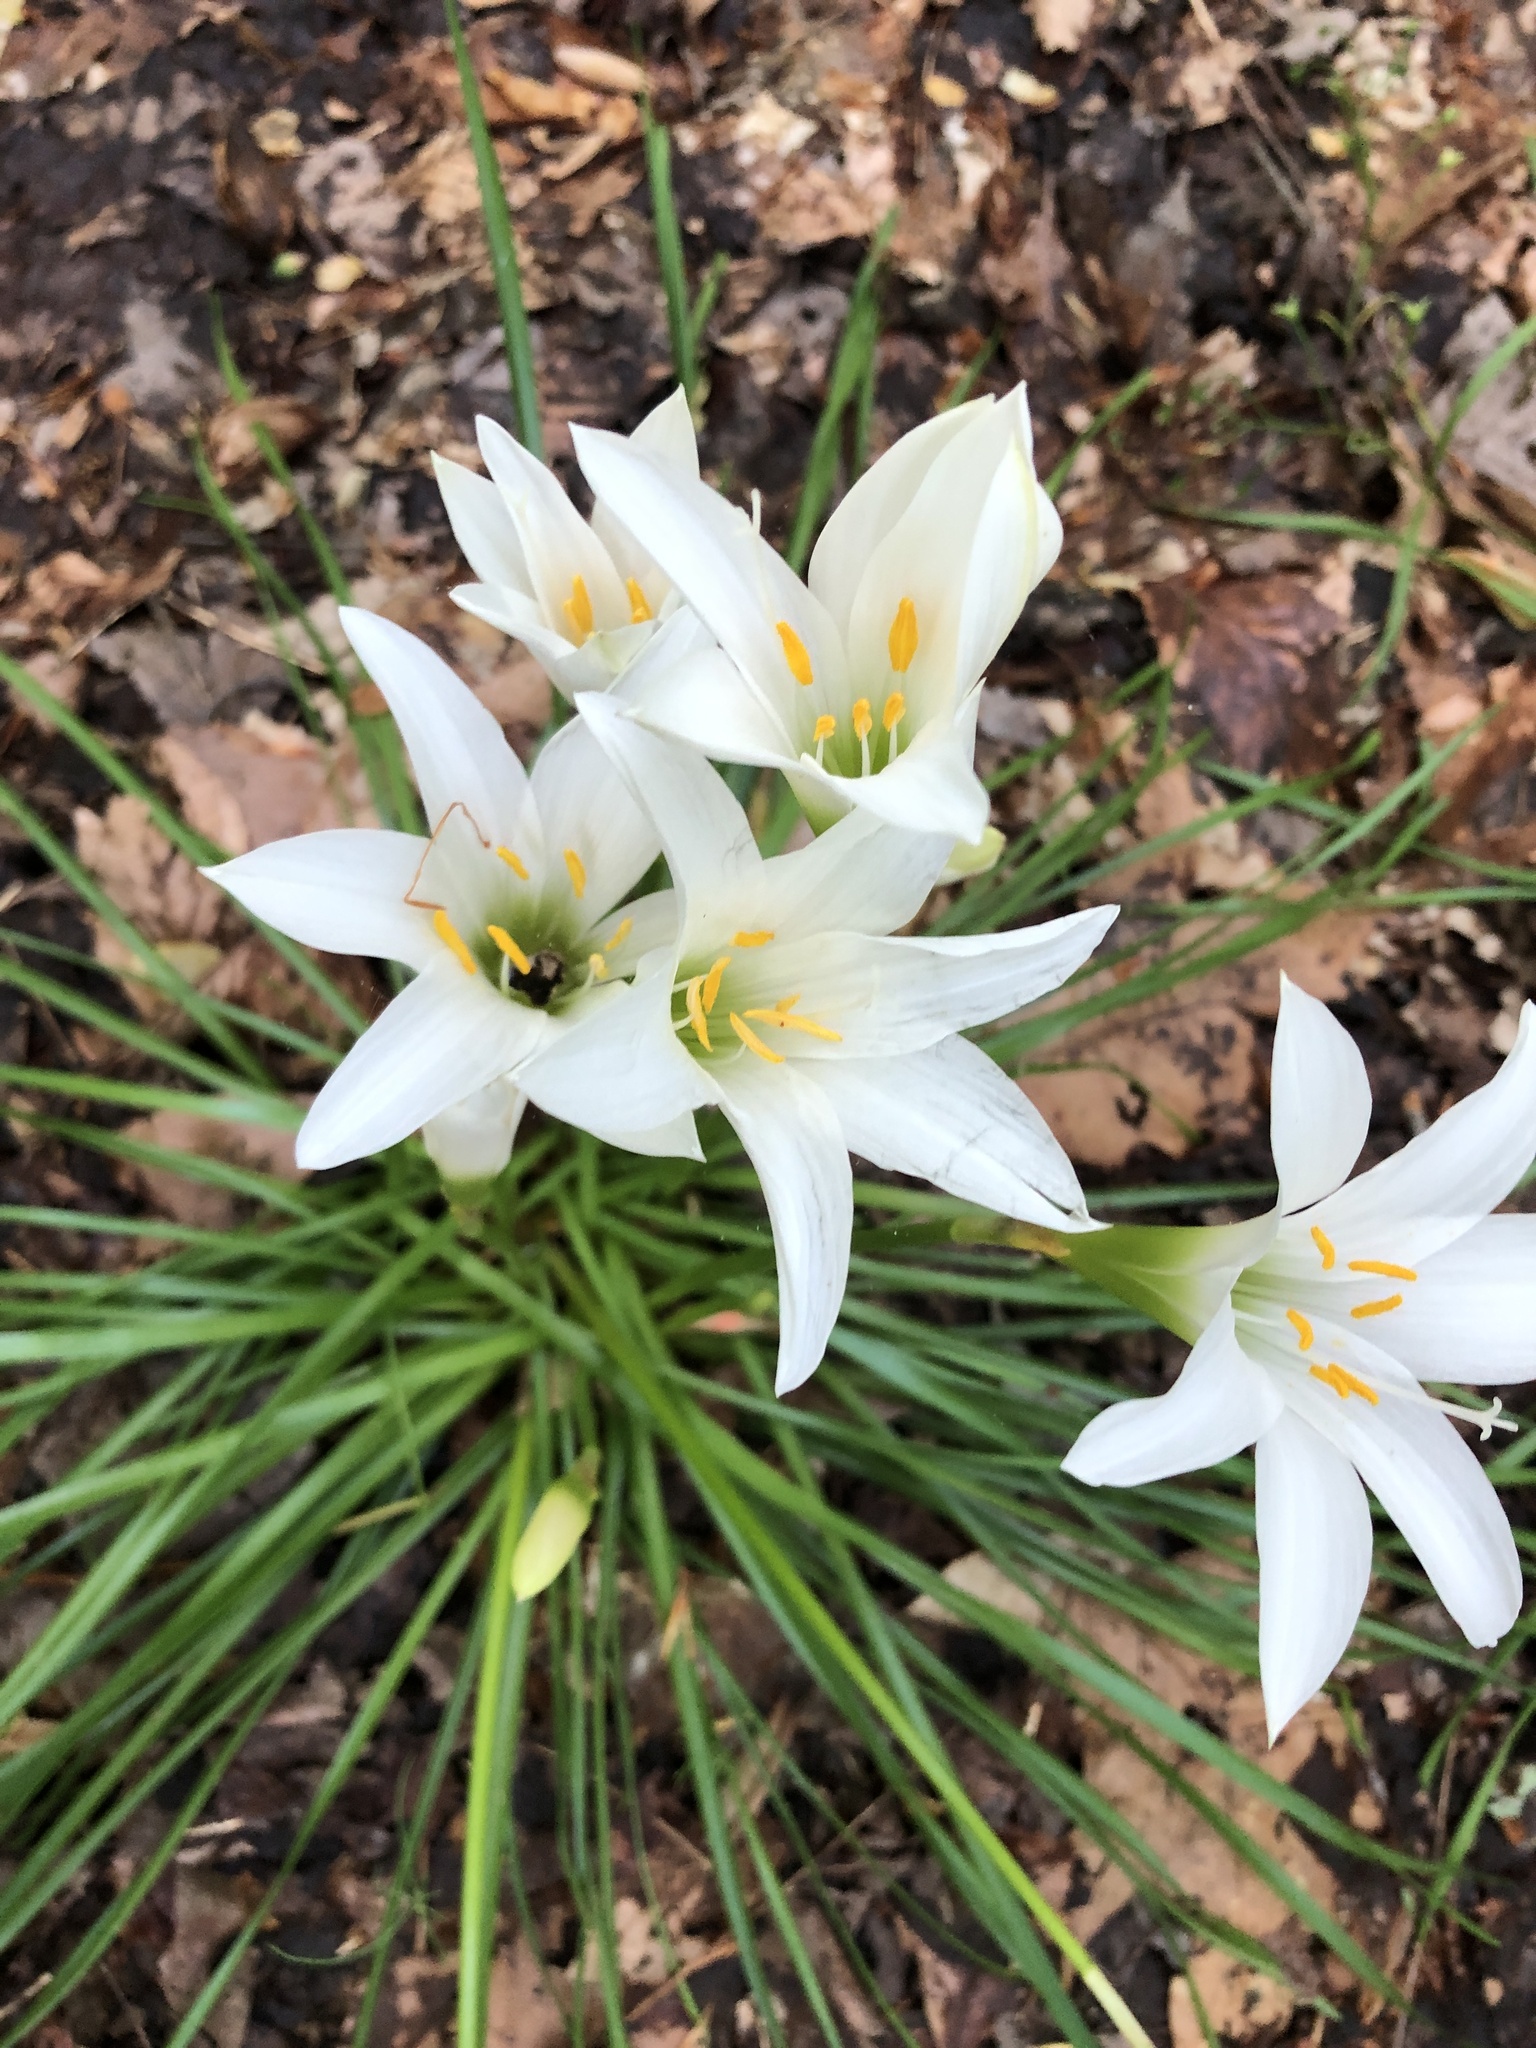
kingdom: Plantae
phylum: Tracheophyta
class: Liliopsida
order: Asparagales
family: Amaryllidaceae
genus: Zephyranthes
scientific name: Zephyranthes atamasco
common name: Atamasco lily
